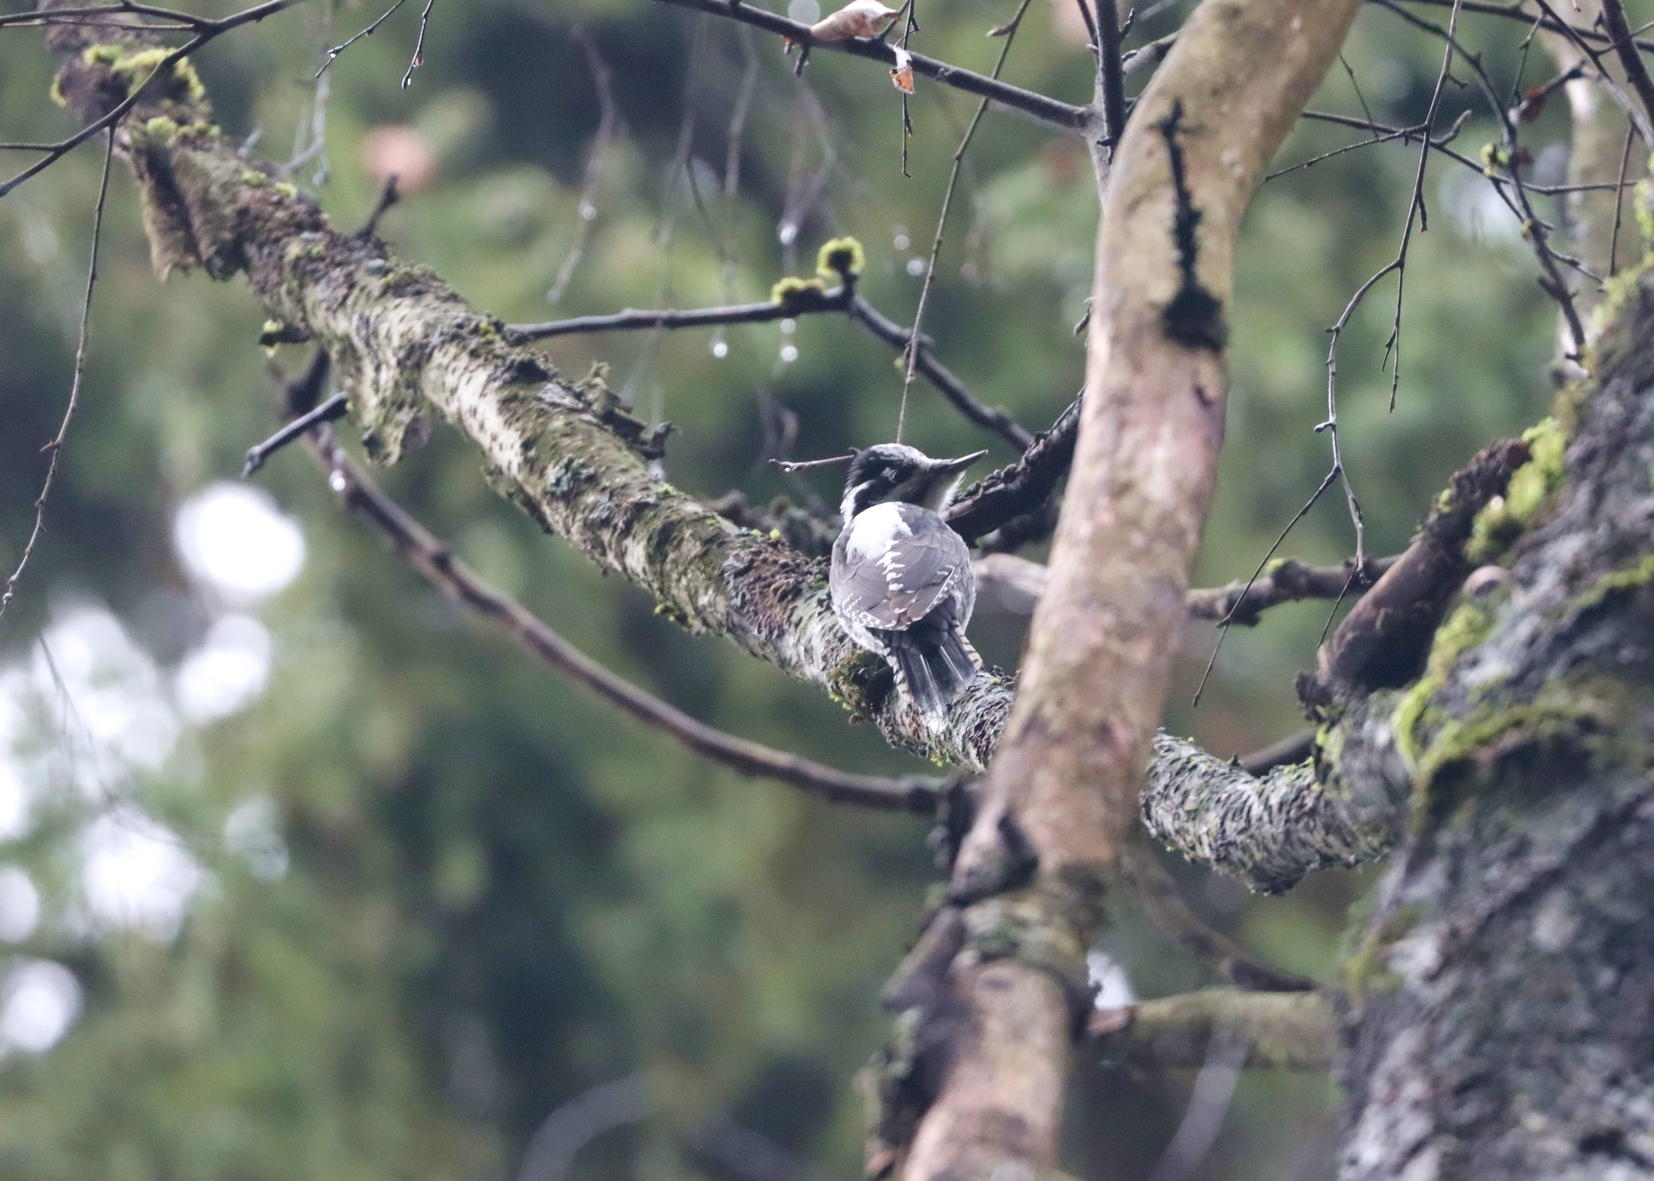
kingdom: Animalia
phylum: Chordata
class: Aves
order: Piciformes
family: Picidae
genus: Picoides
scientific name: Picoides tridactylus
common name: Eurasian three-toed woodpecker
